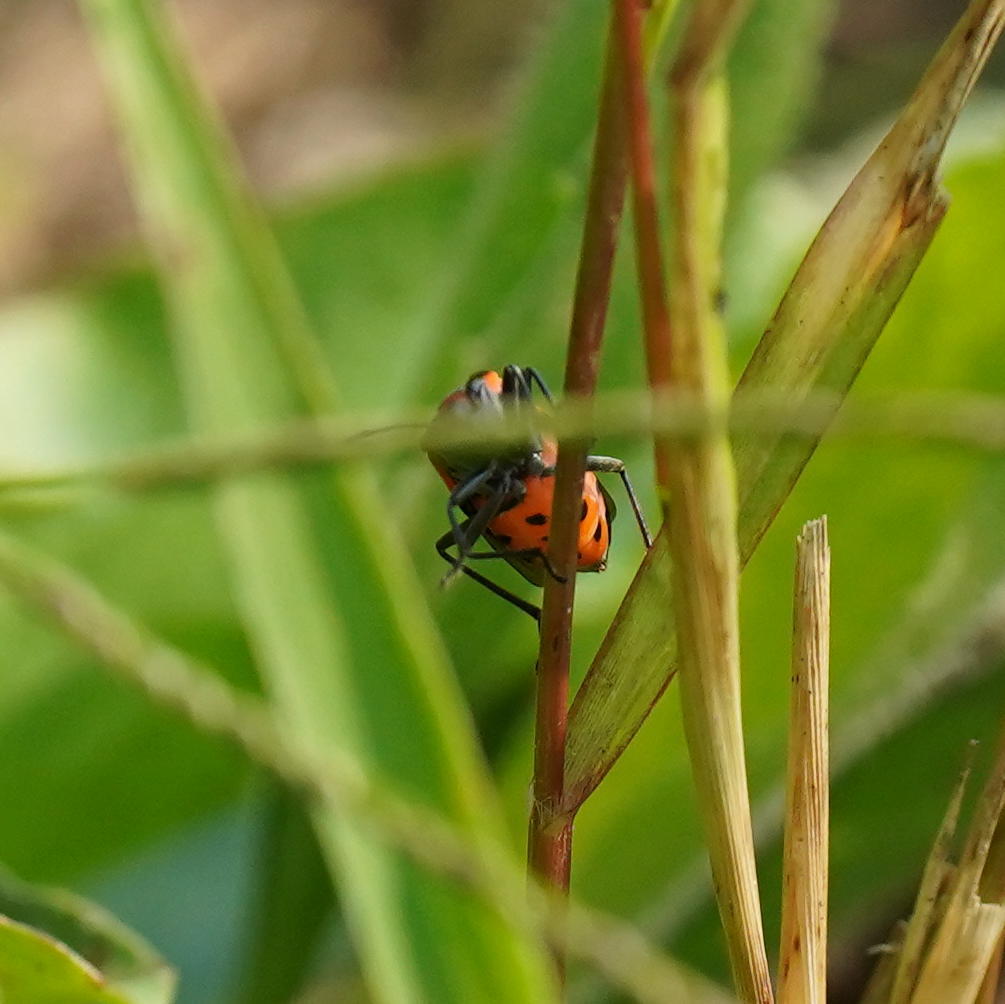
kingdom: Animalia
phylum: Arthropoda
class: Insecta
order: Hemiptera
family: Lygaeidae
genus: Lygaeus
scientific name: Lygaeus turcicus
